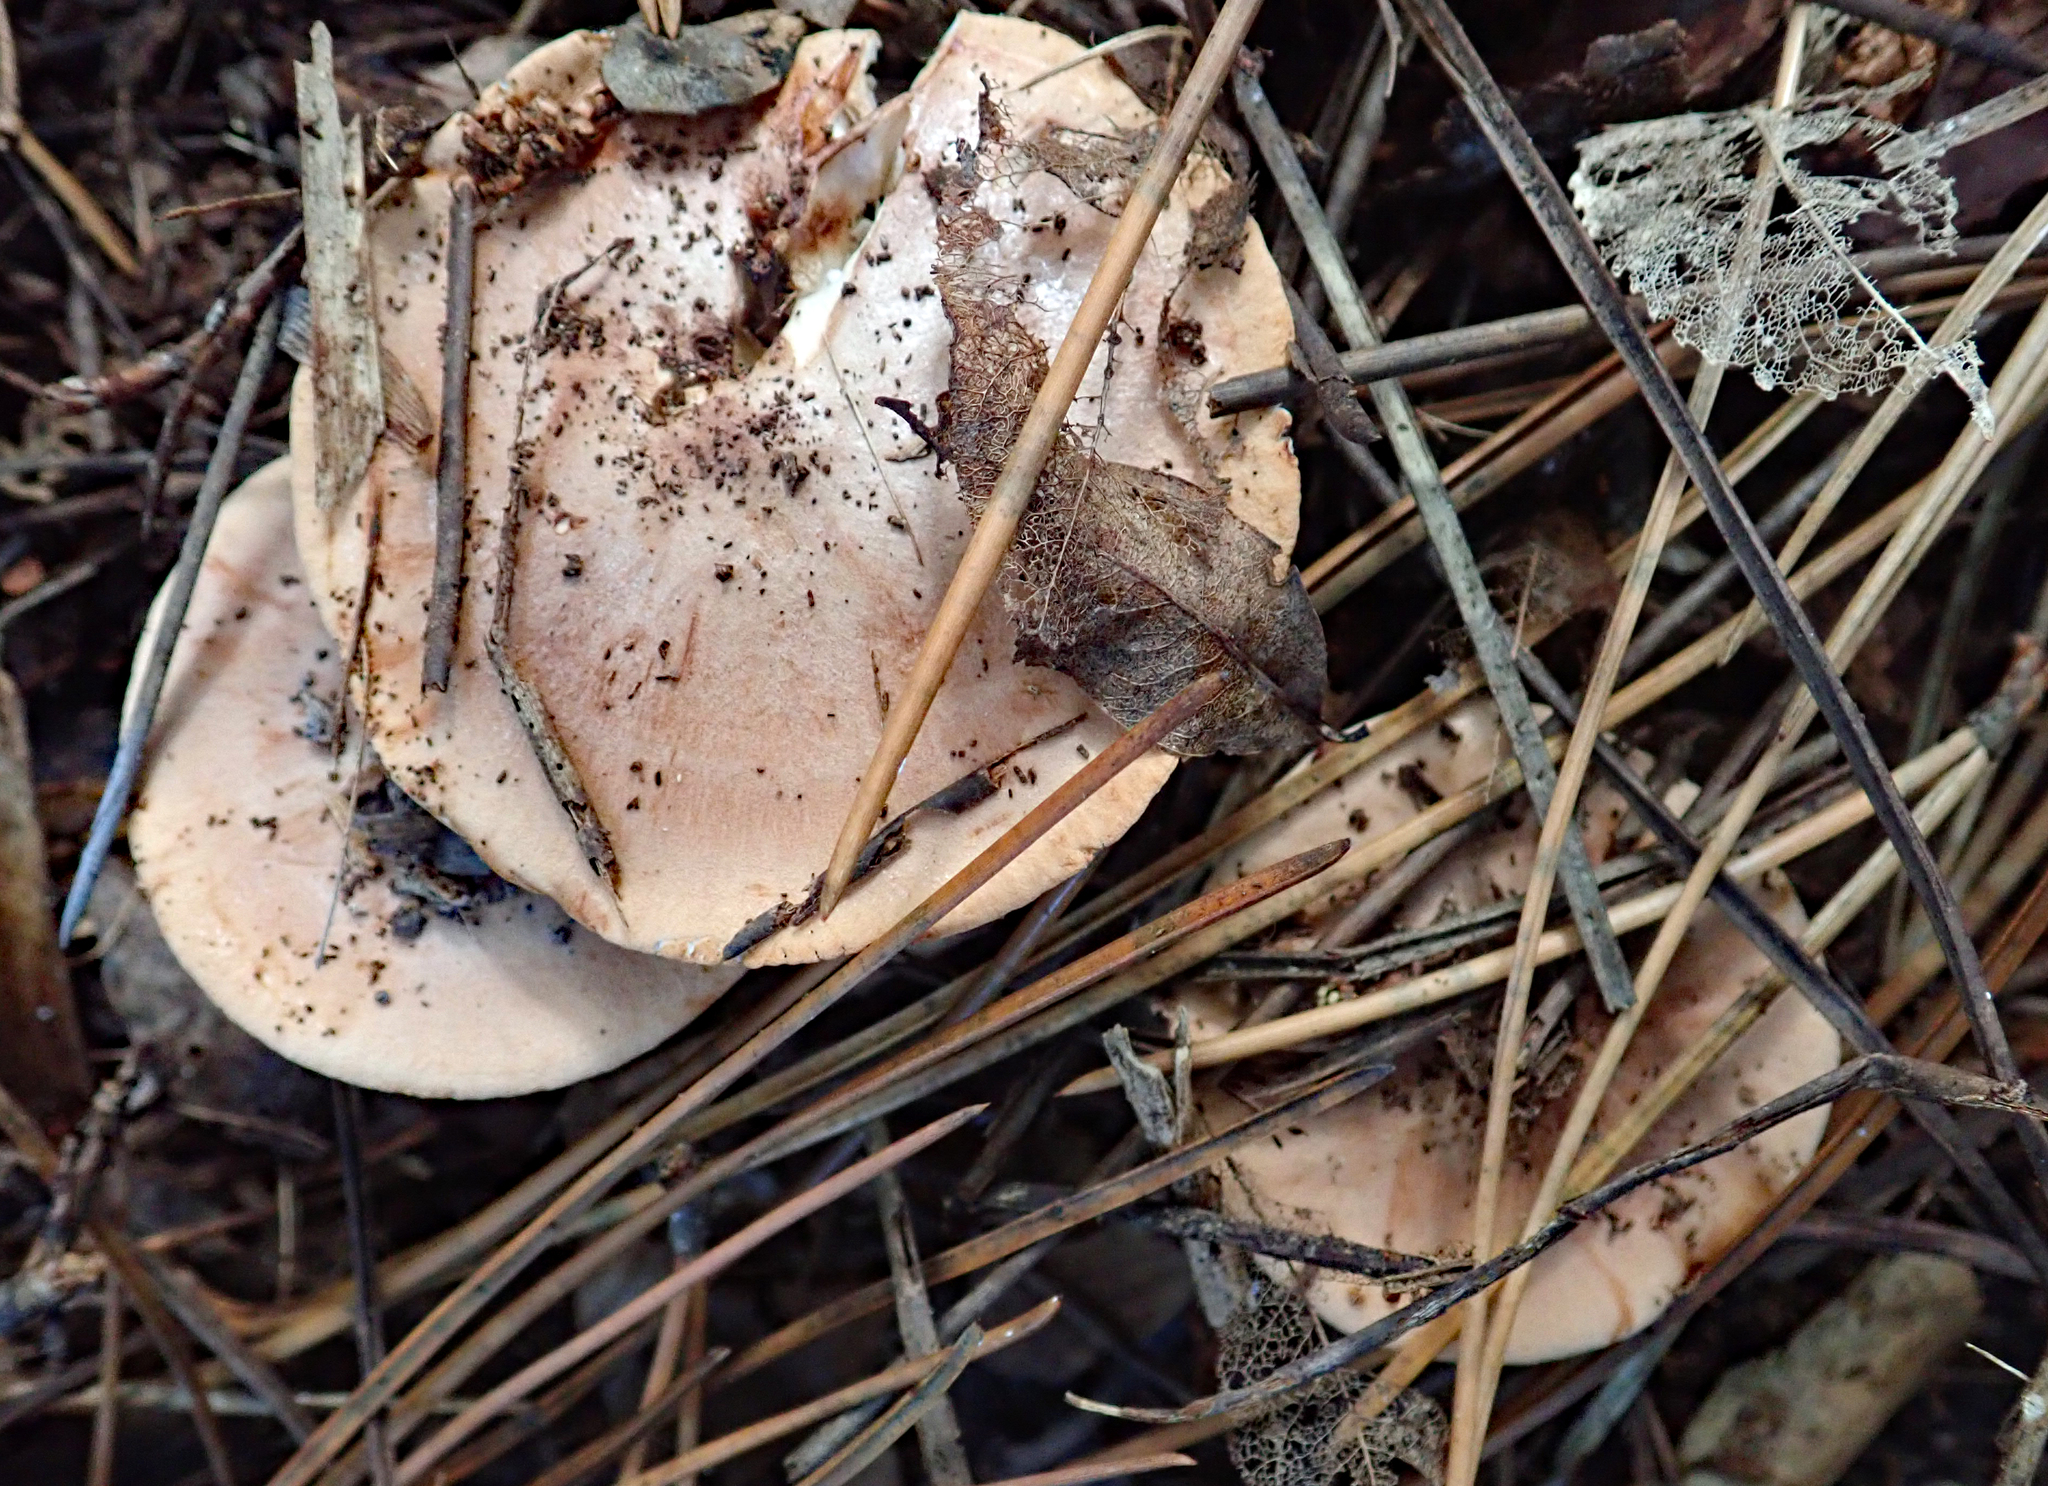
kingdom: Fungi
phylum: Basidiomycota
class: Agaricomycetes
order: Agaricales
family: Tricholomataceae
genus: Tricholoma
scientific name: Tricholoma batschii
